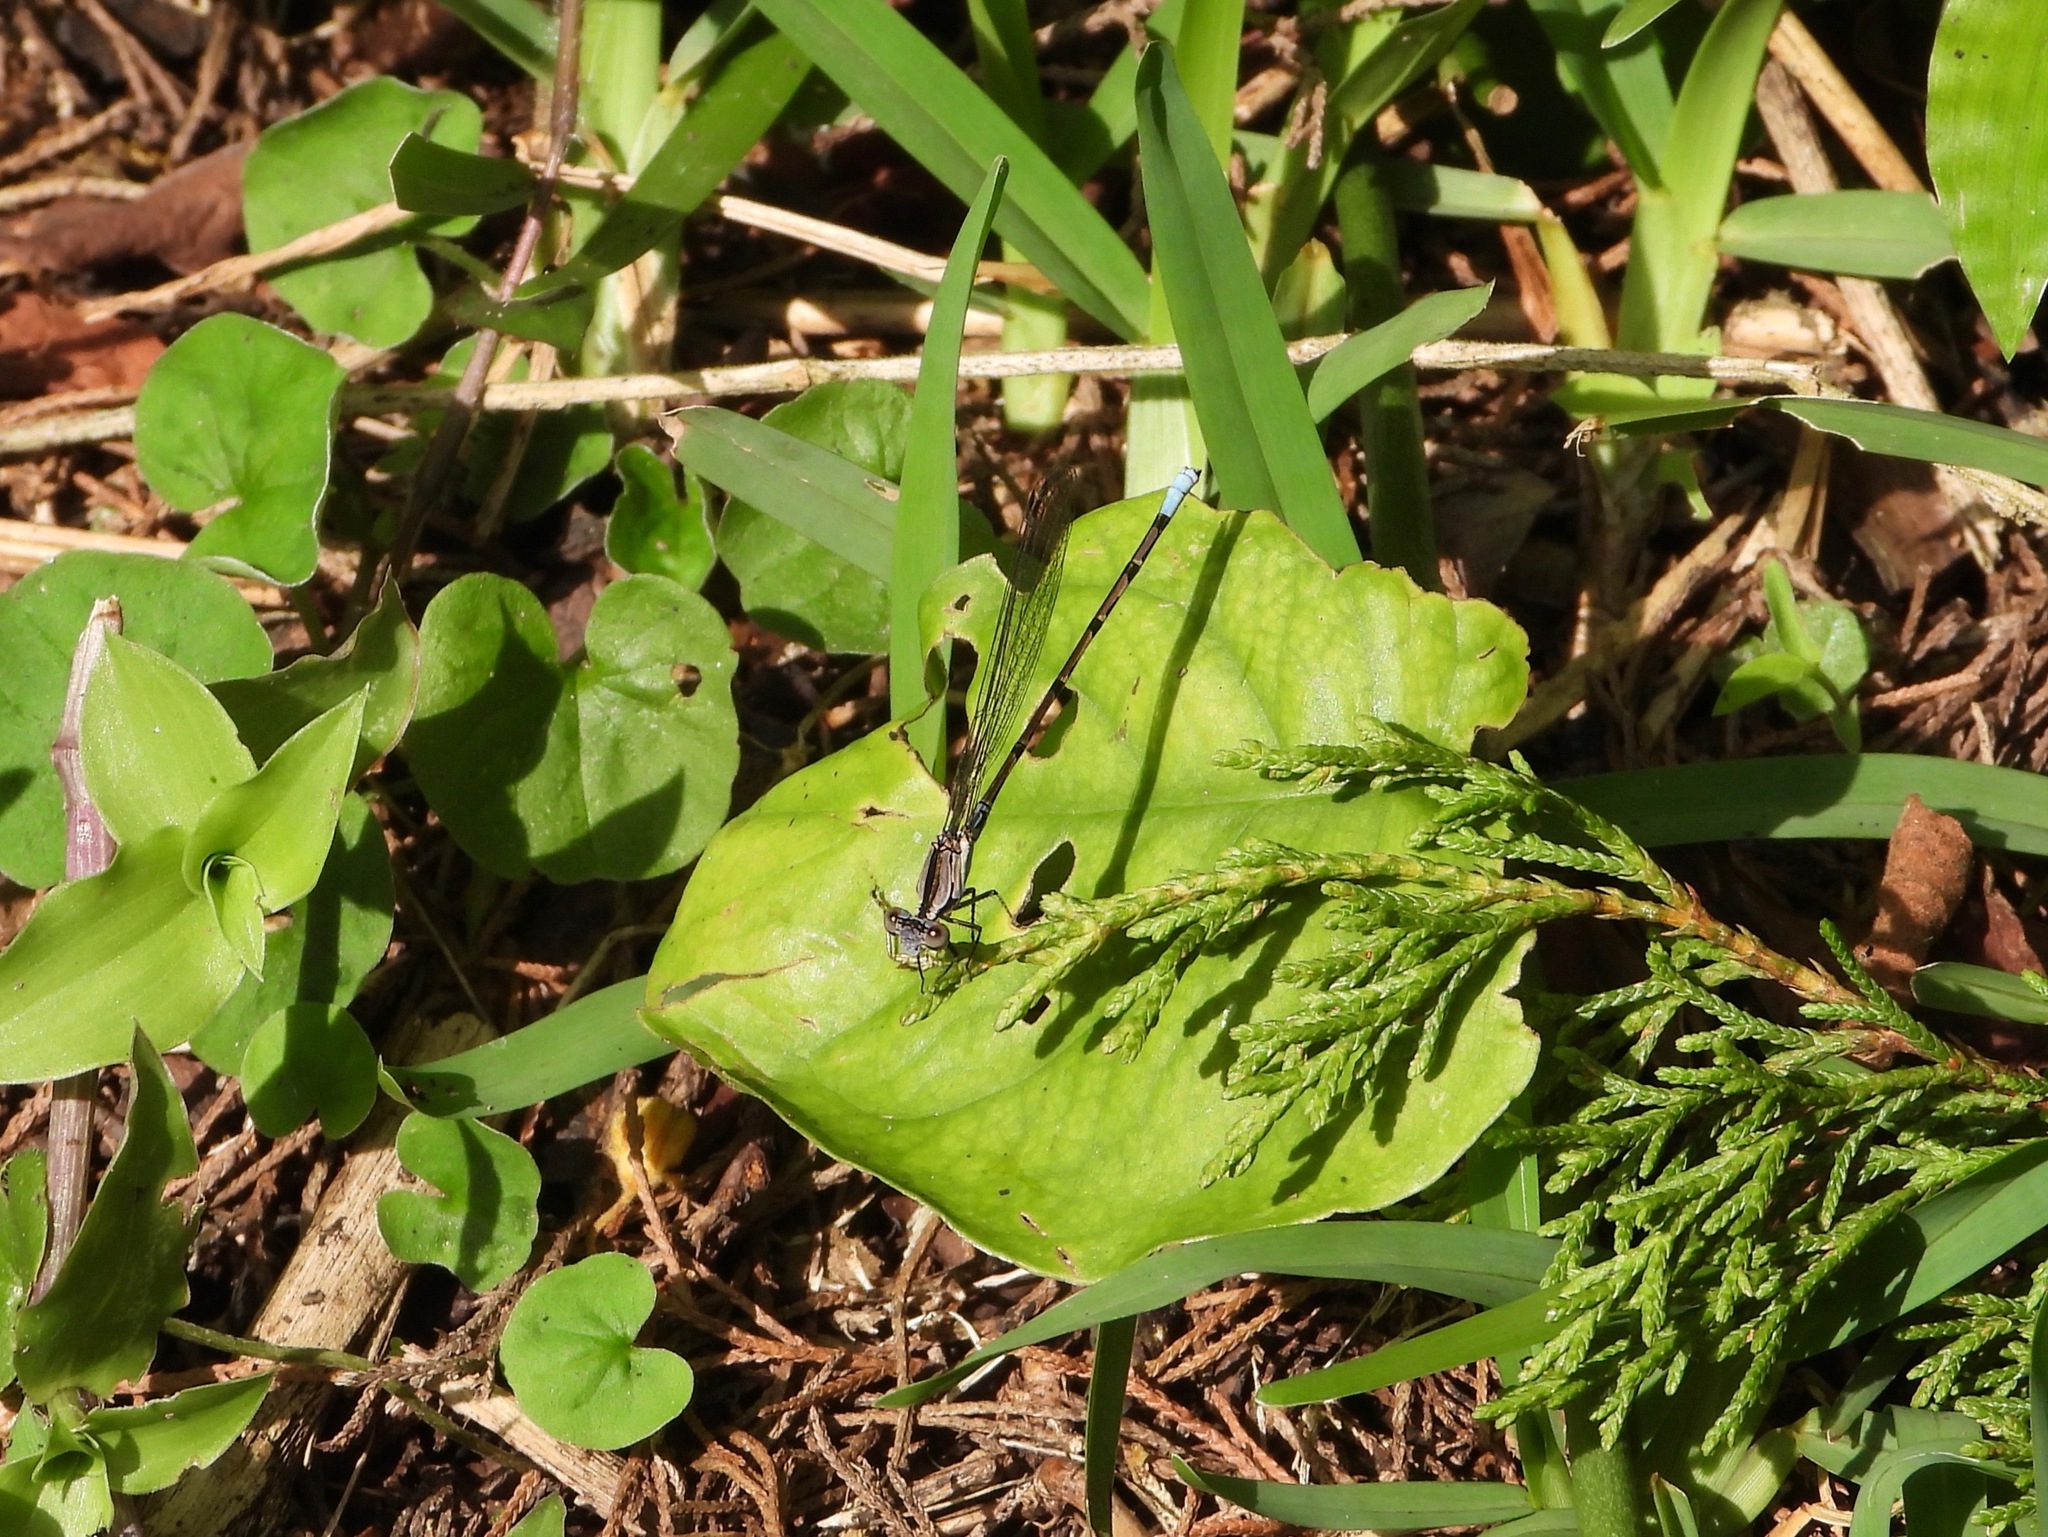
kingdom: Animalia
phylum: Arthropoda
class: Insecta
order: Odonata
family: Coenagrionidae
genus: Argia
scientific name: Argia elongata
